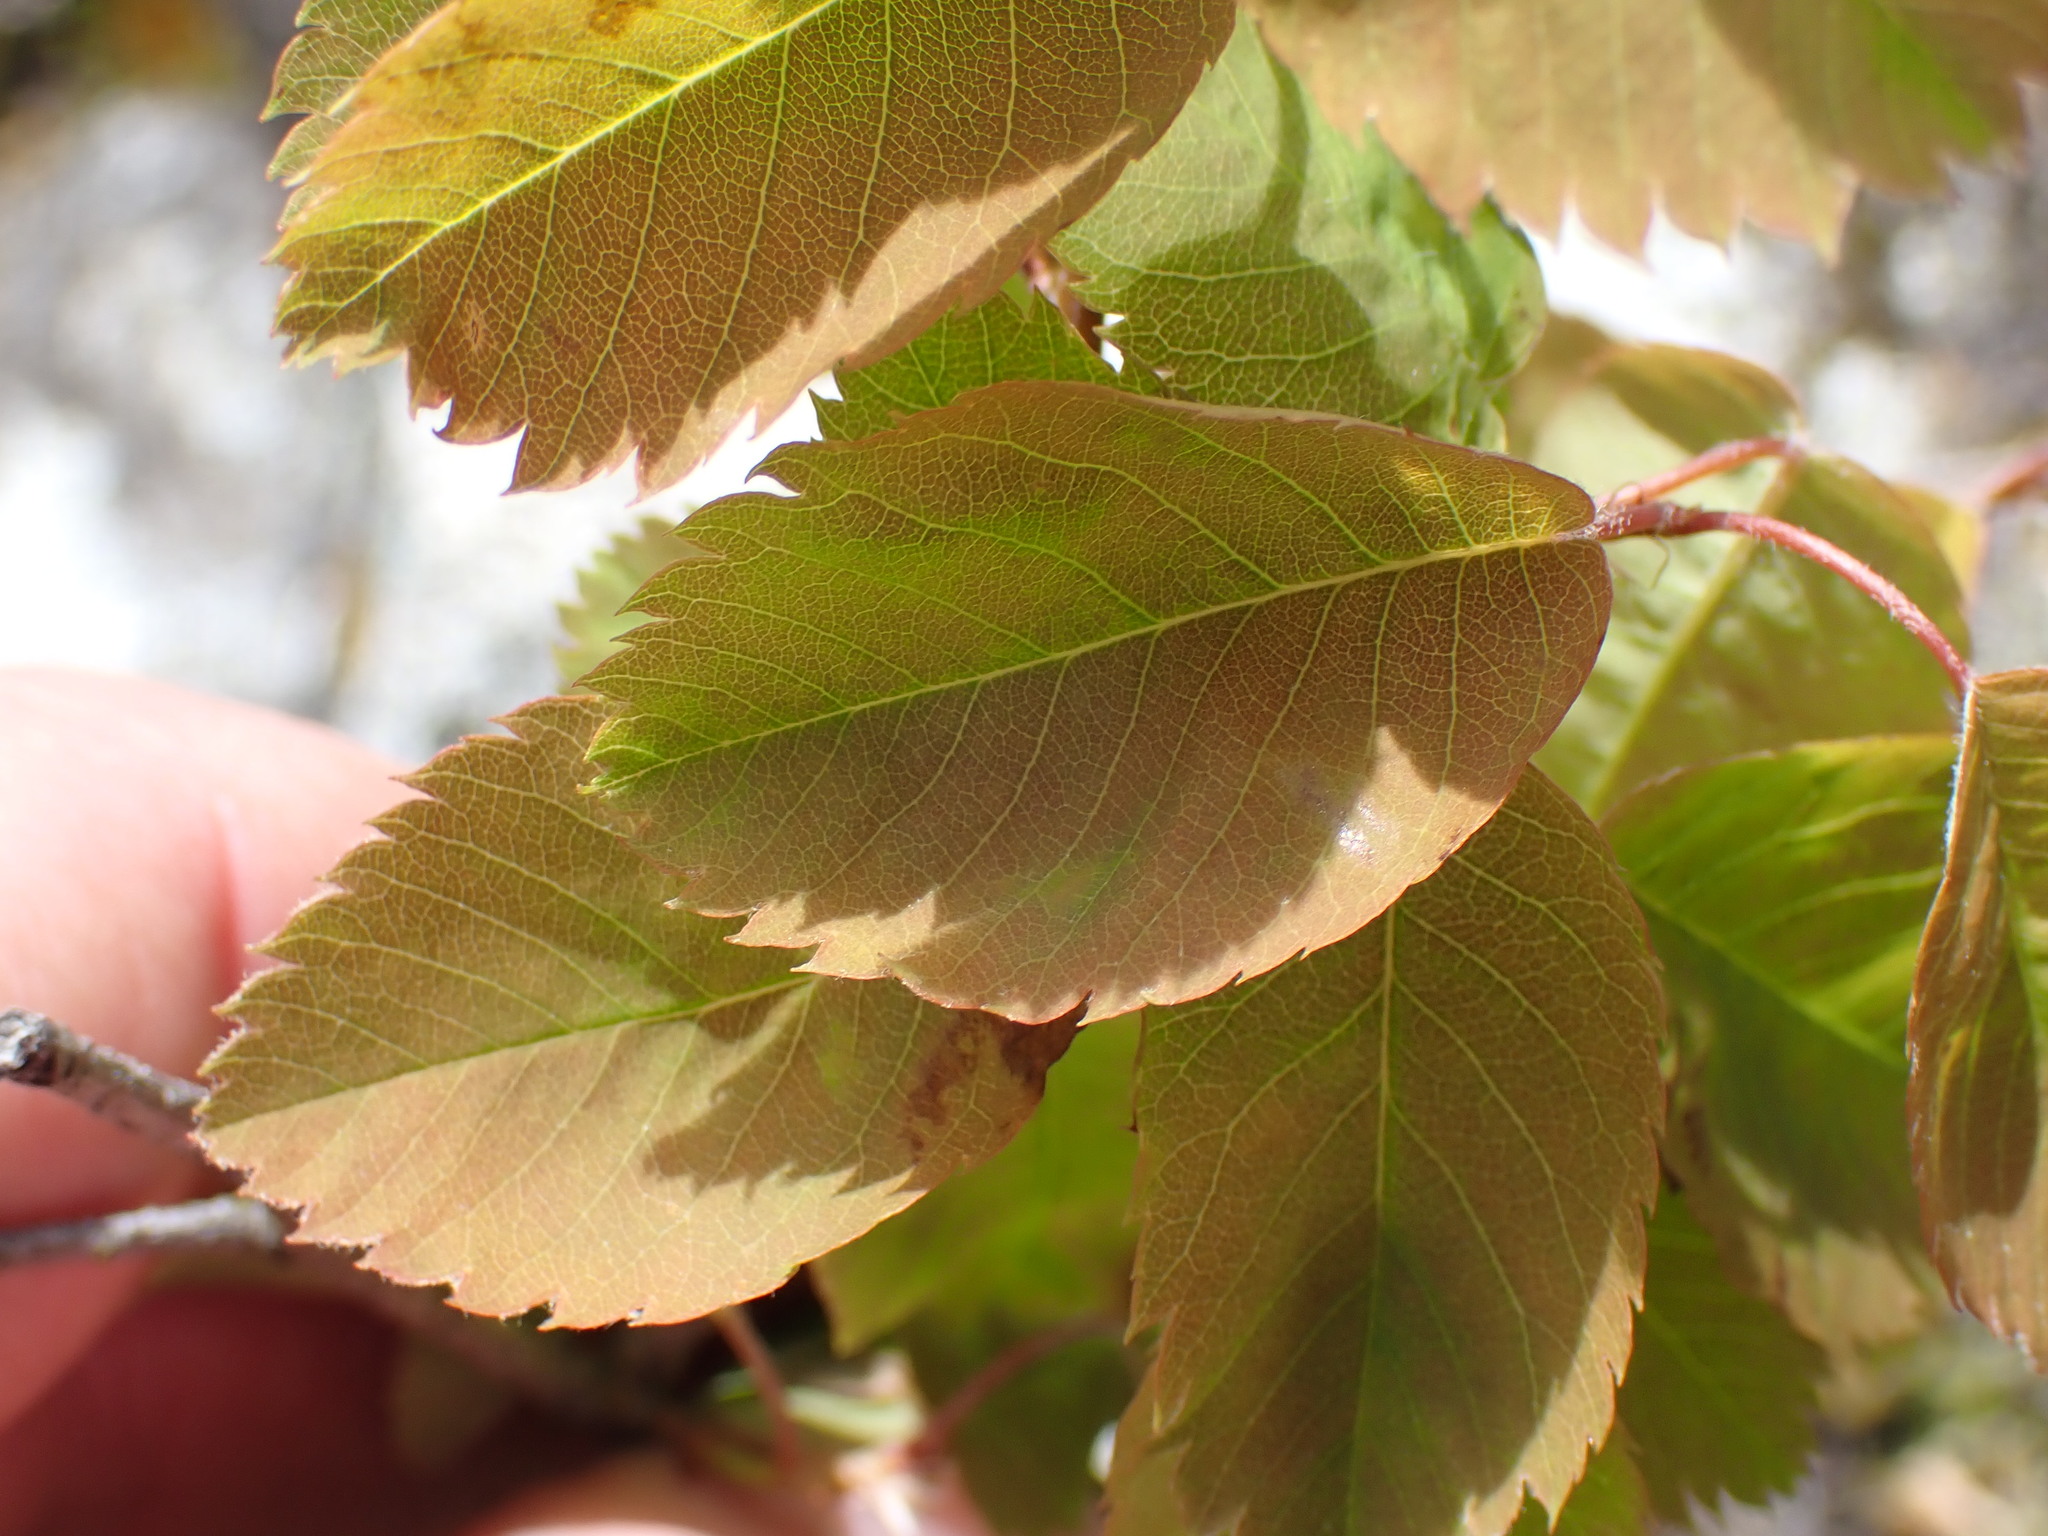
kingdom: Plantae
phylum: Tracheophyta
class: Magnoliopsida
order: Rosales
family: Rosaceae
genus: Amelanchier
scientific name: Amelanchier alnifolia
